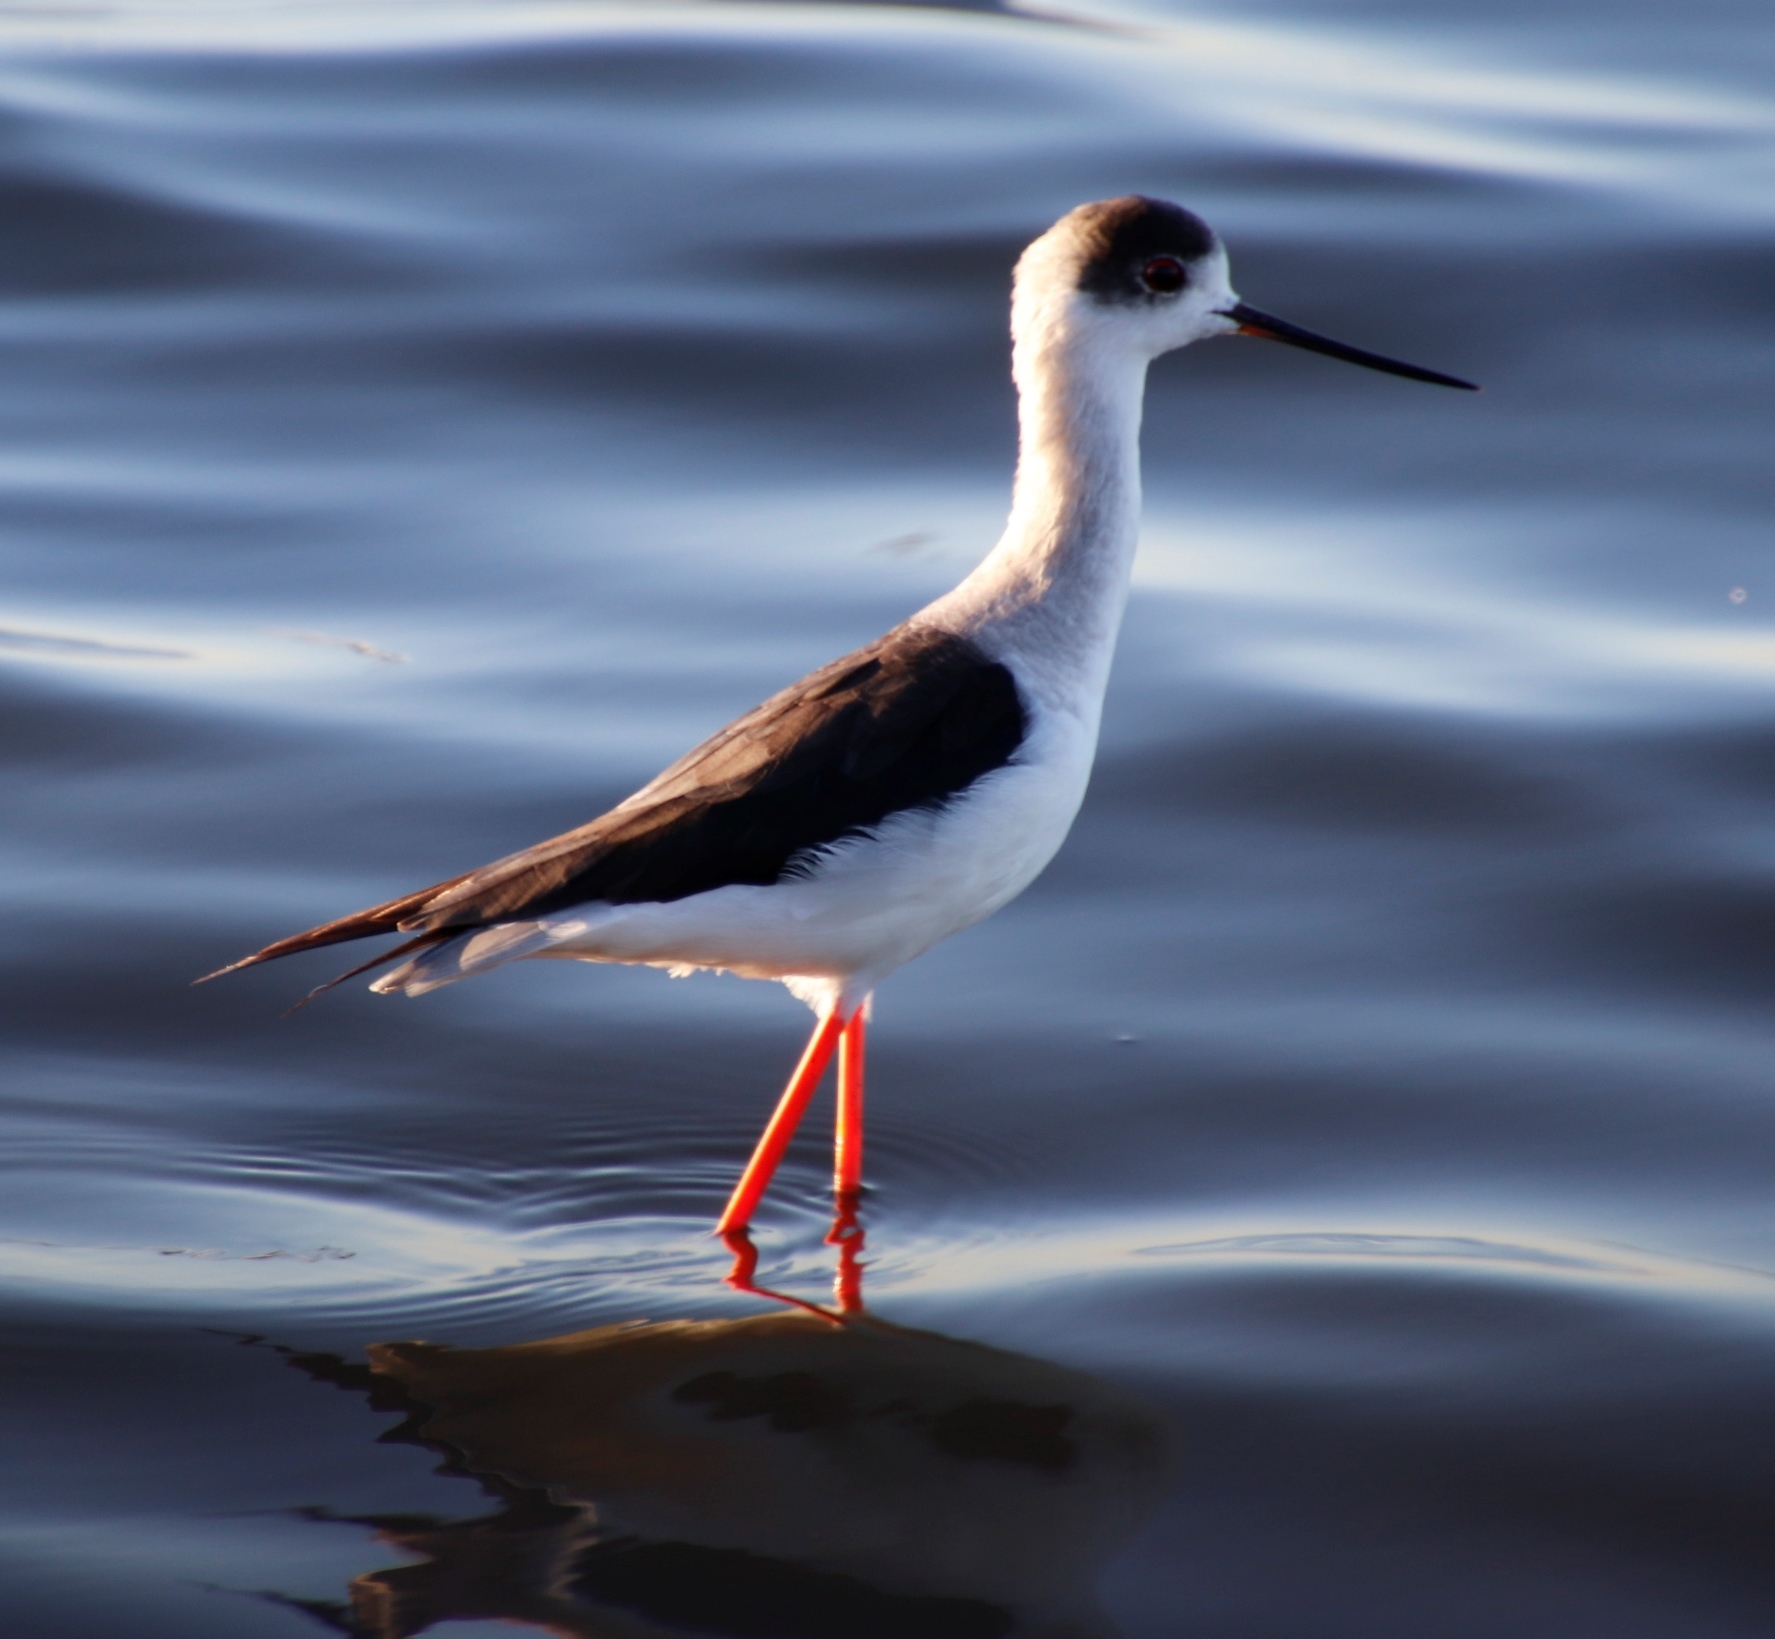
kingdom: Animalia
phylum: Chordata
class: Aves
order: Charadriiformes
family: Recurvirostridae
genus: Himantopus
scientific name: Himantopus himantopus
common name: Black-winged stilt
